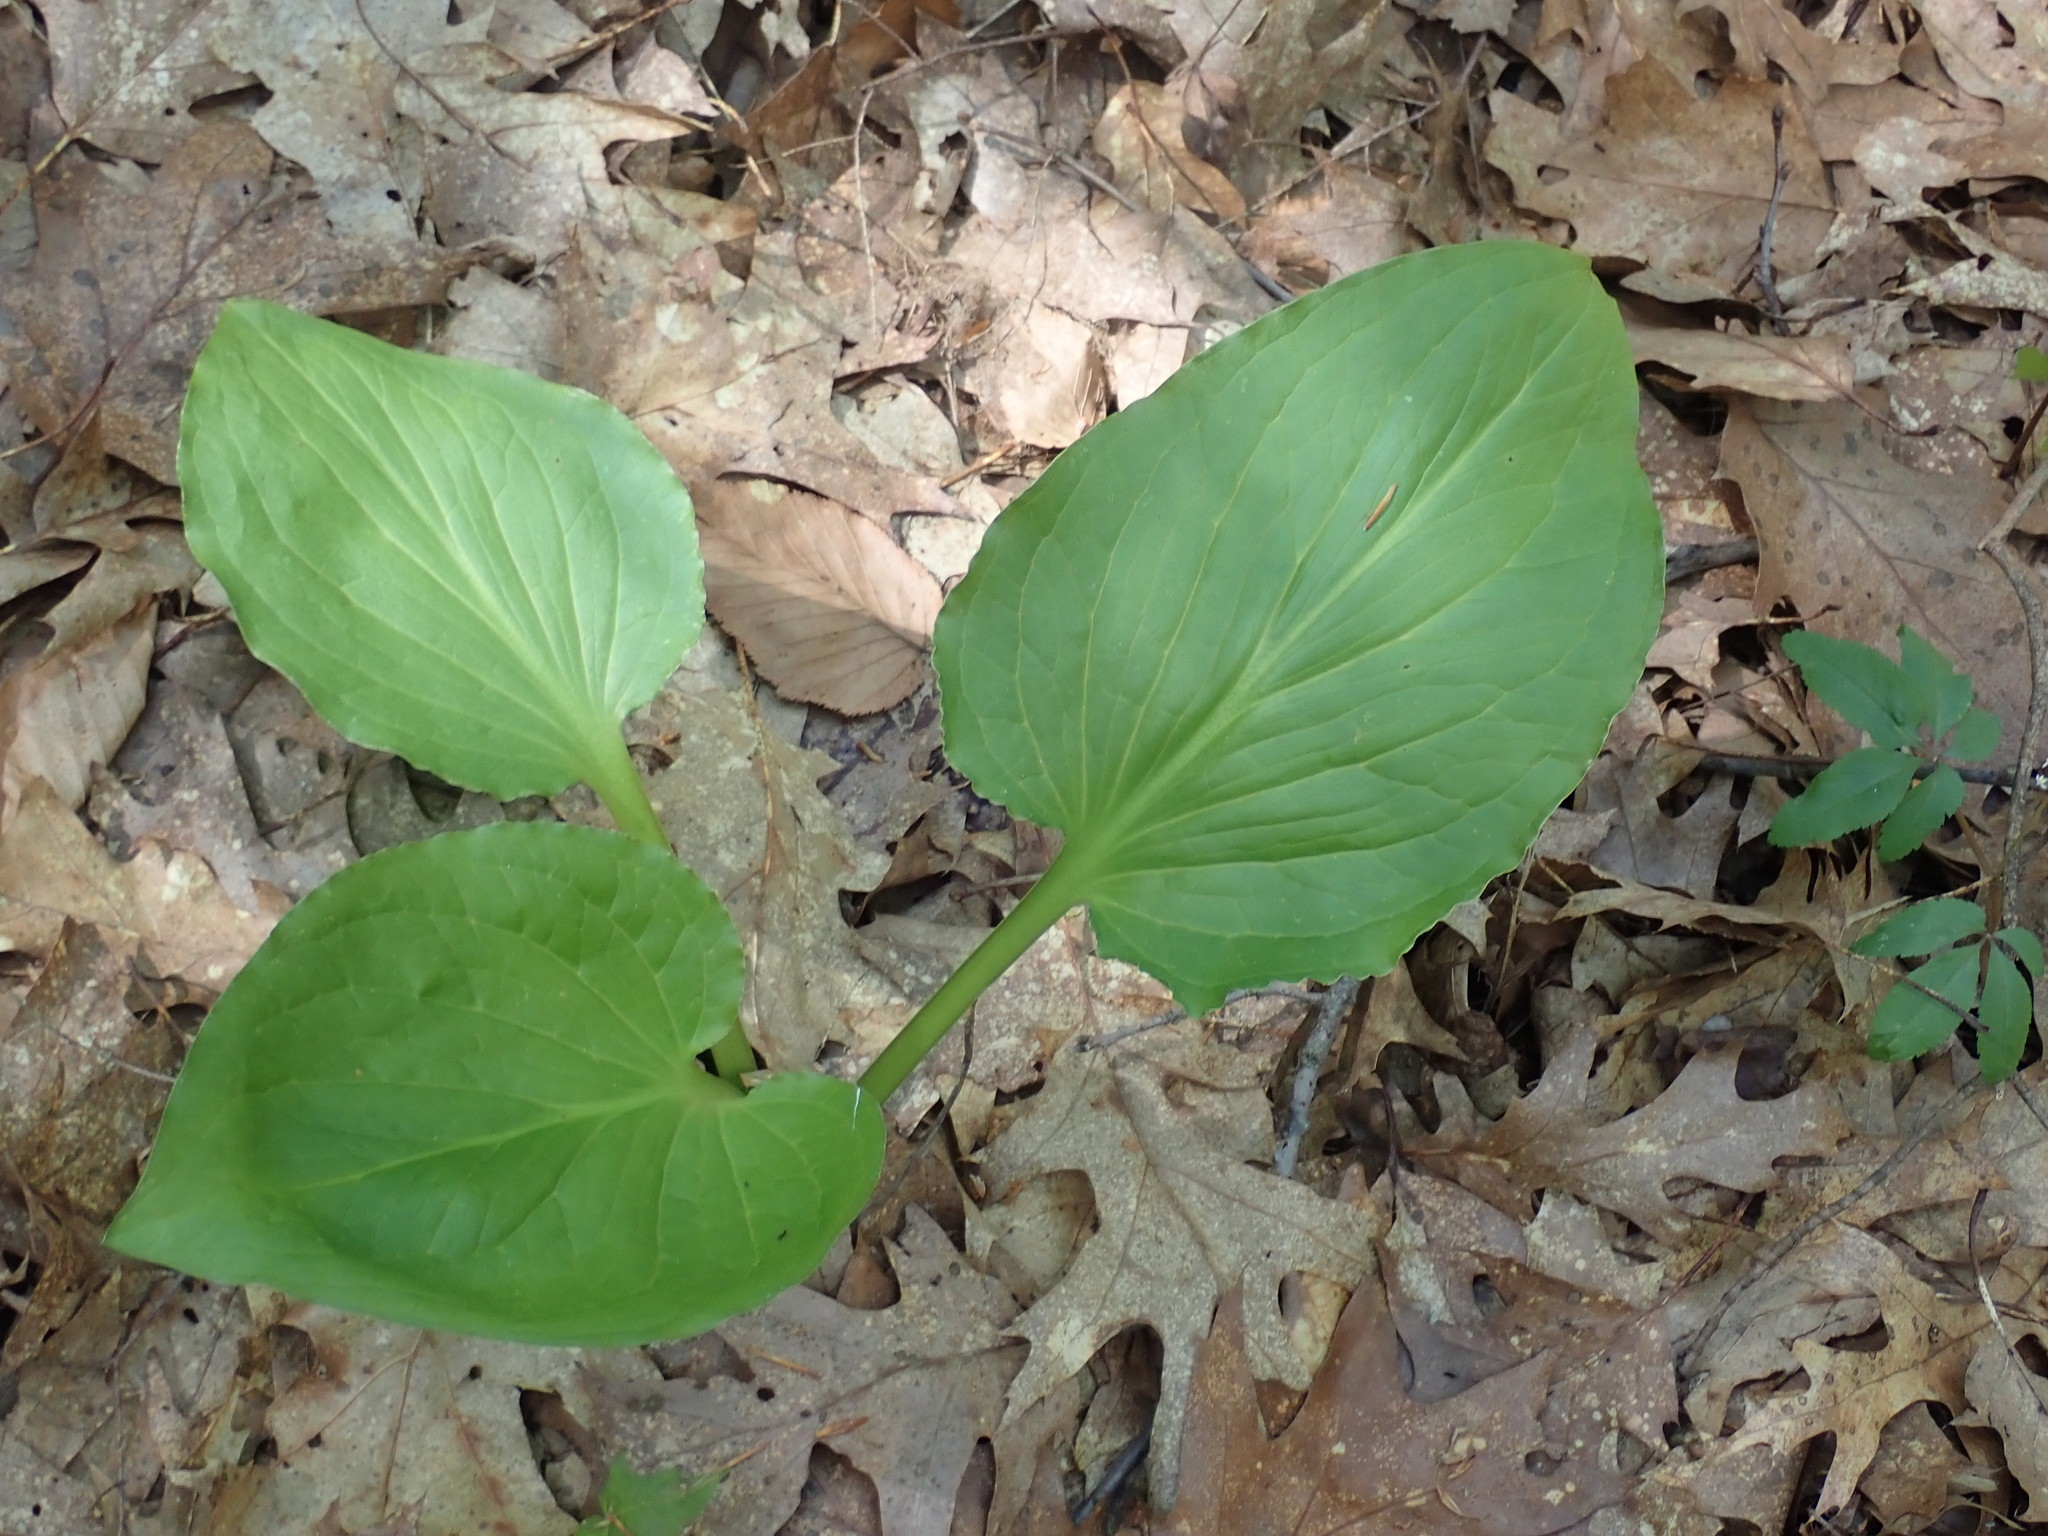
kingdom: Plantae
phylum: Tracheophyta
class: Liliopsida
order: Alismatales
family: Araceae
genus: Symplocarpus
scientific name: Symplocarpus foetidus
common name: Eastern skunk cabbage
